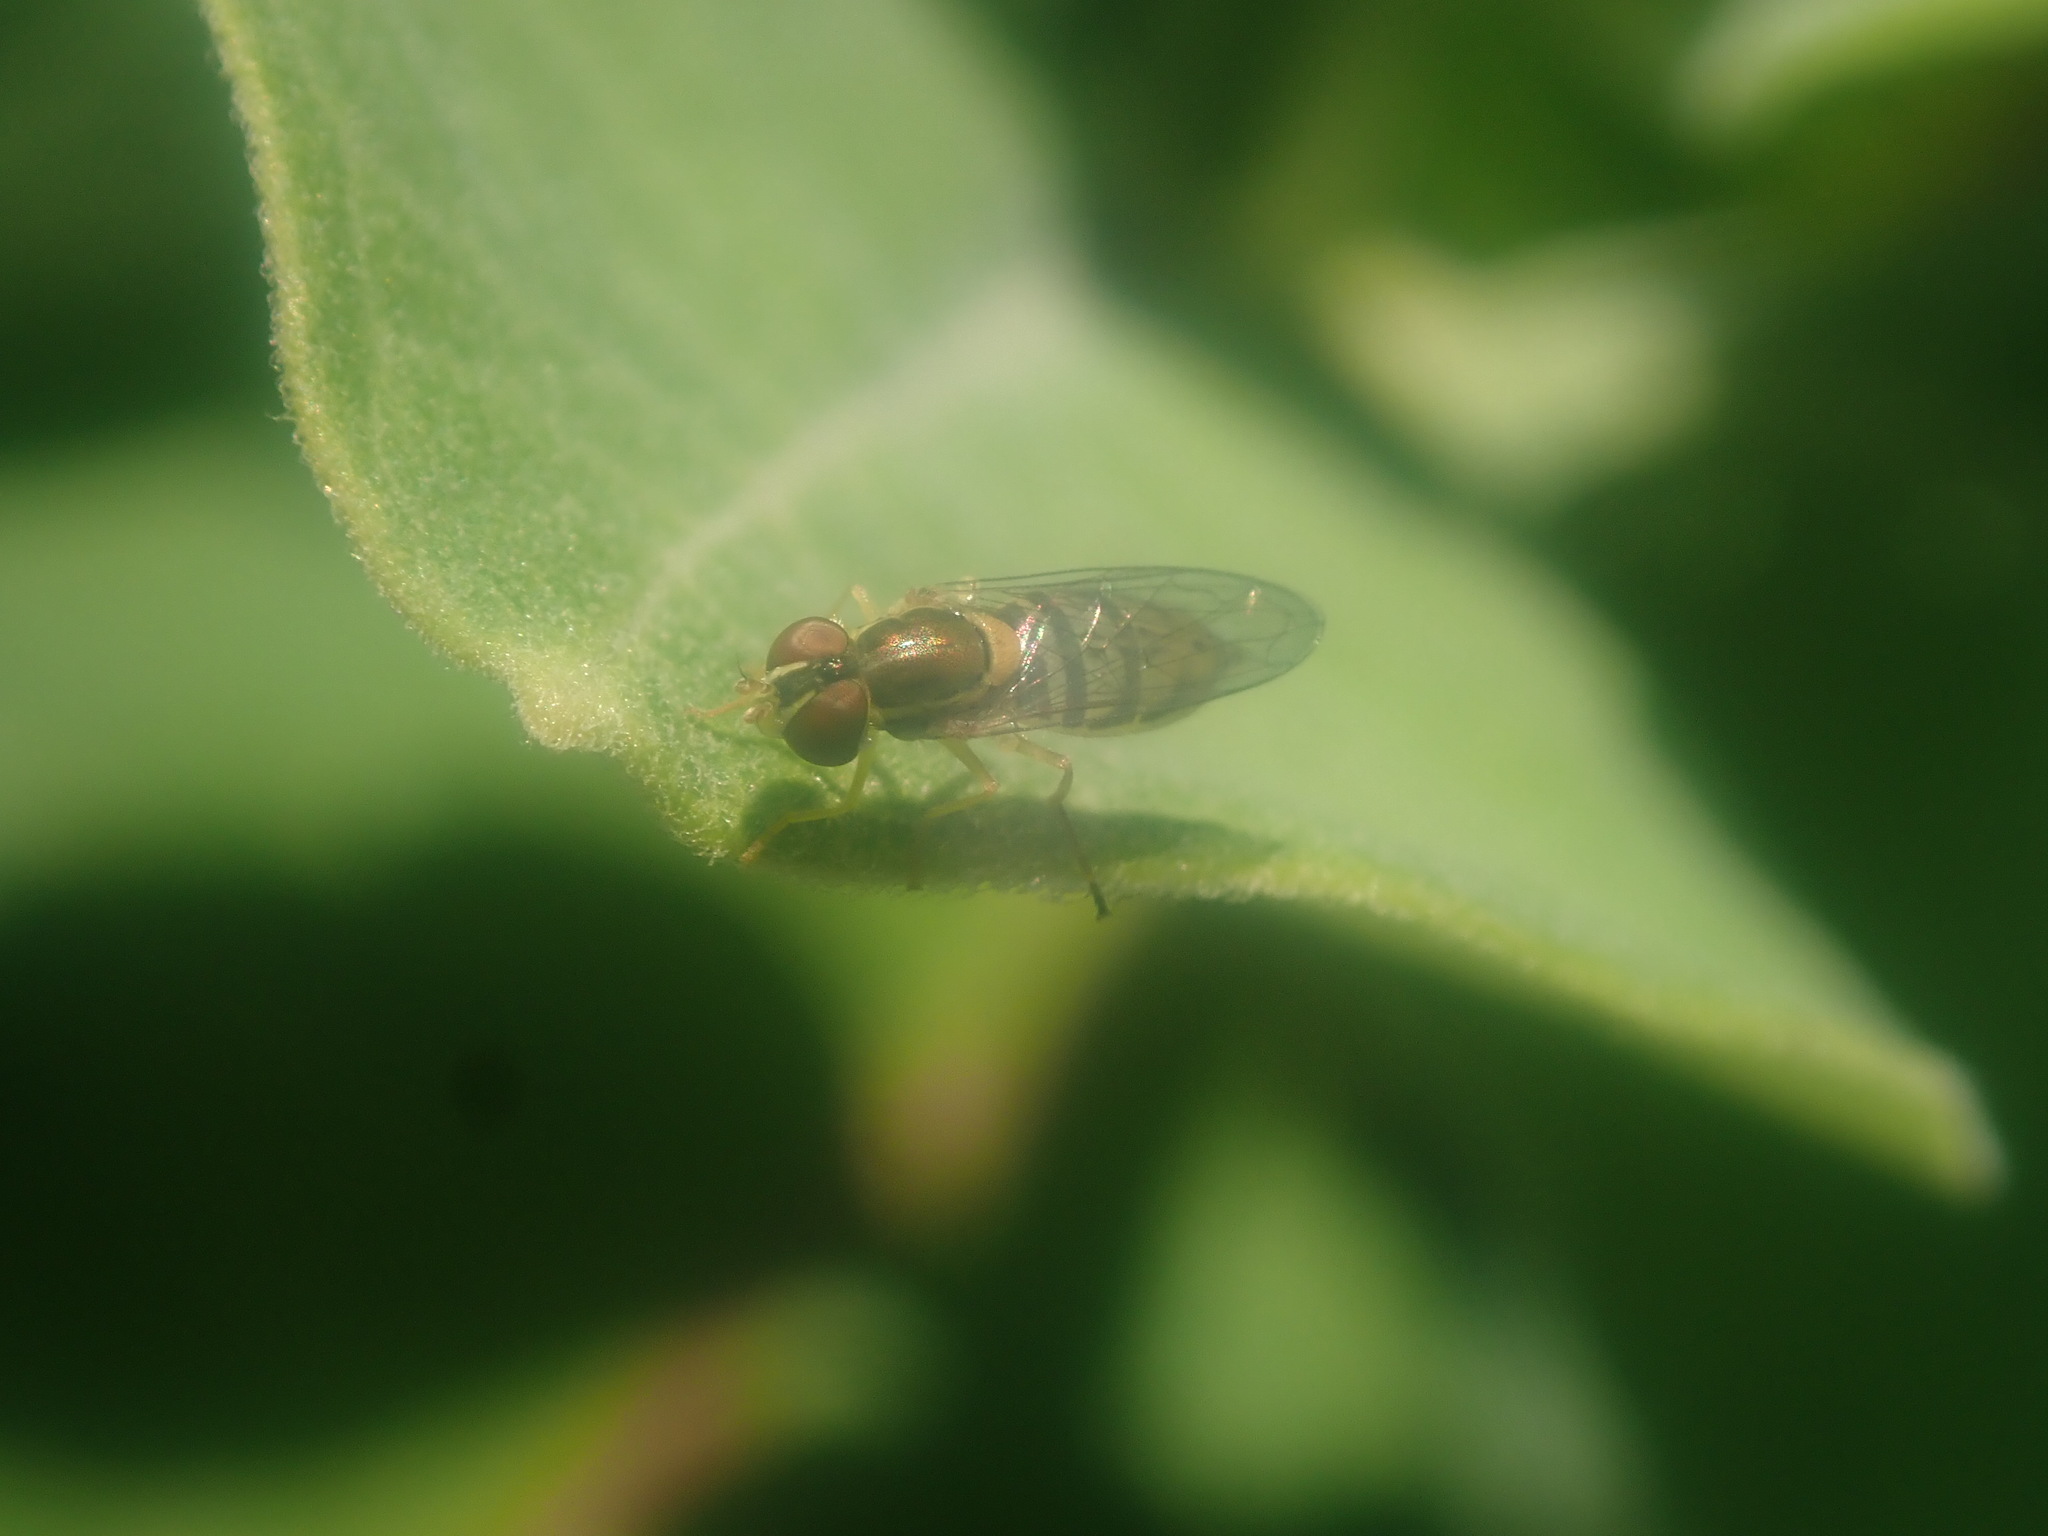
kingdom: Animalia
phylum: Arthropoda
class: Insecta
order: Diptera
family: Syrphidae
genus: Toxomerus
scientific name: Toxomerus marginatus
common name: Syrphid fly
